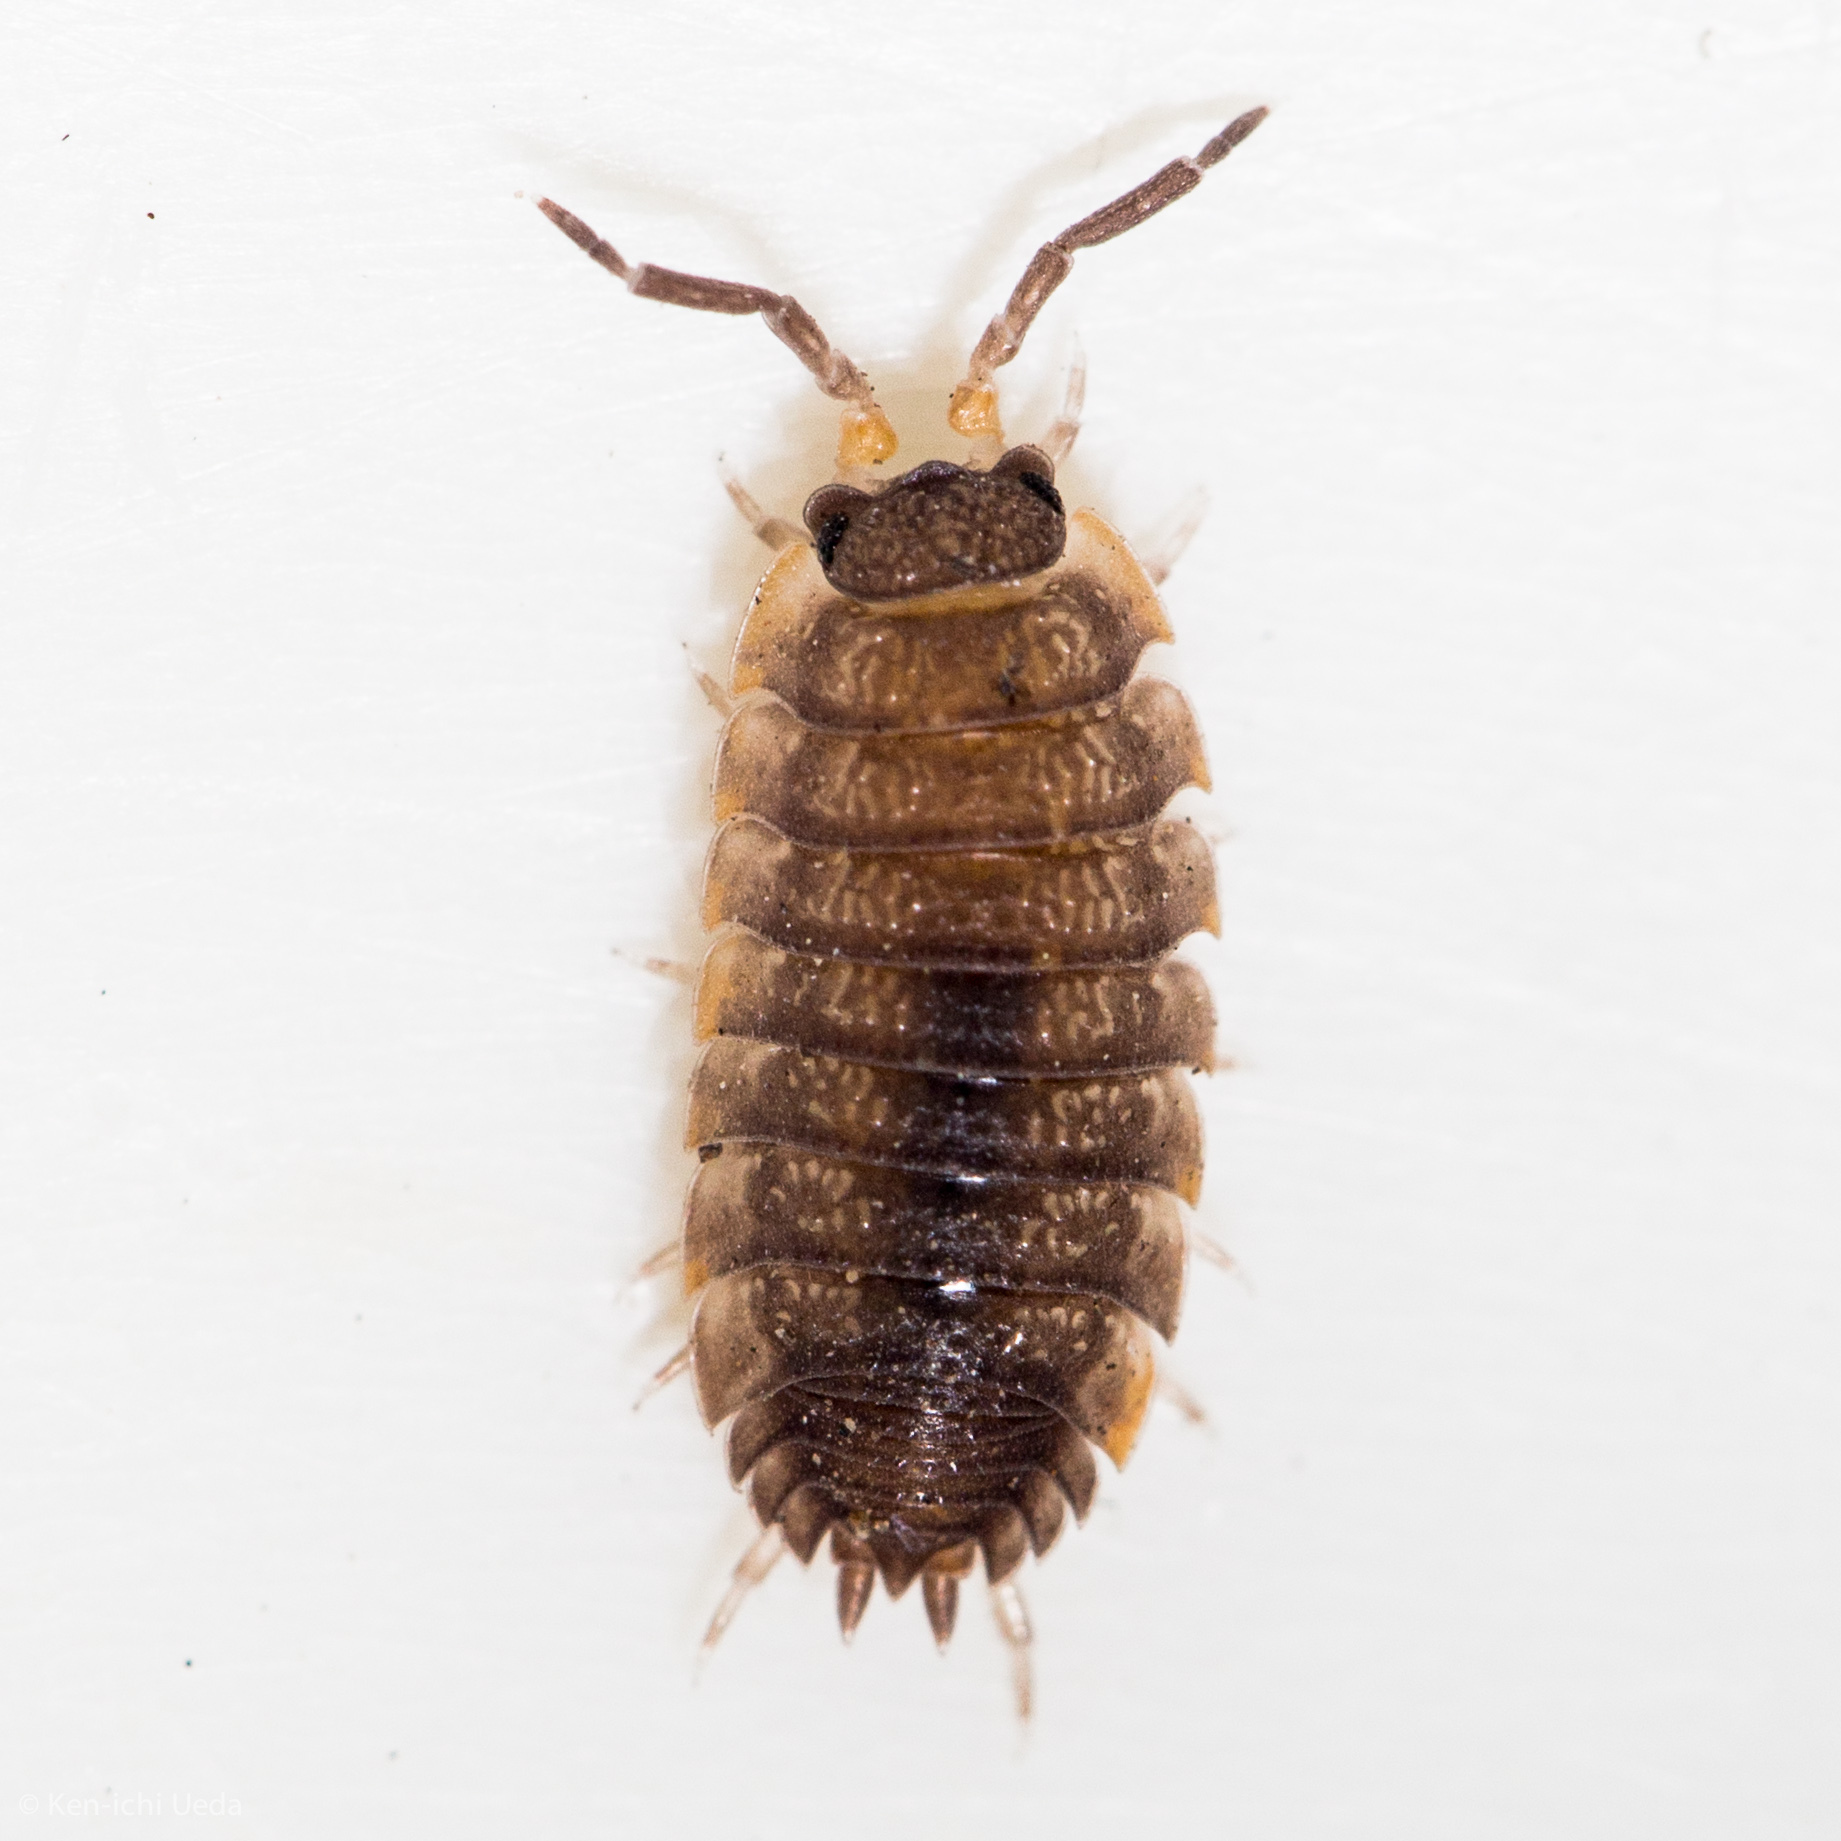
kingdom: Animalia
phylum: Arthropoda
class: Malacostraca
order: Isopoda
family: Porcellionidae
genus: Porcellio
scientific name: Porcellio scaber
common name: Common rough woodlouse
